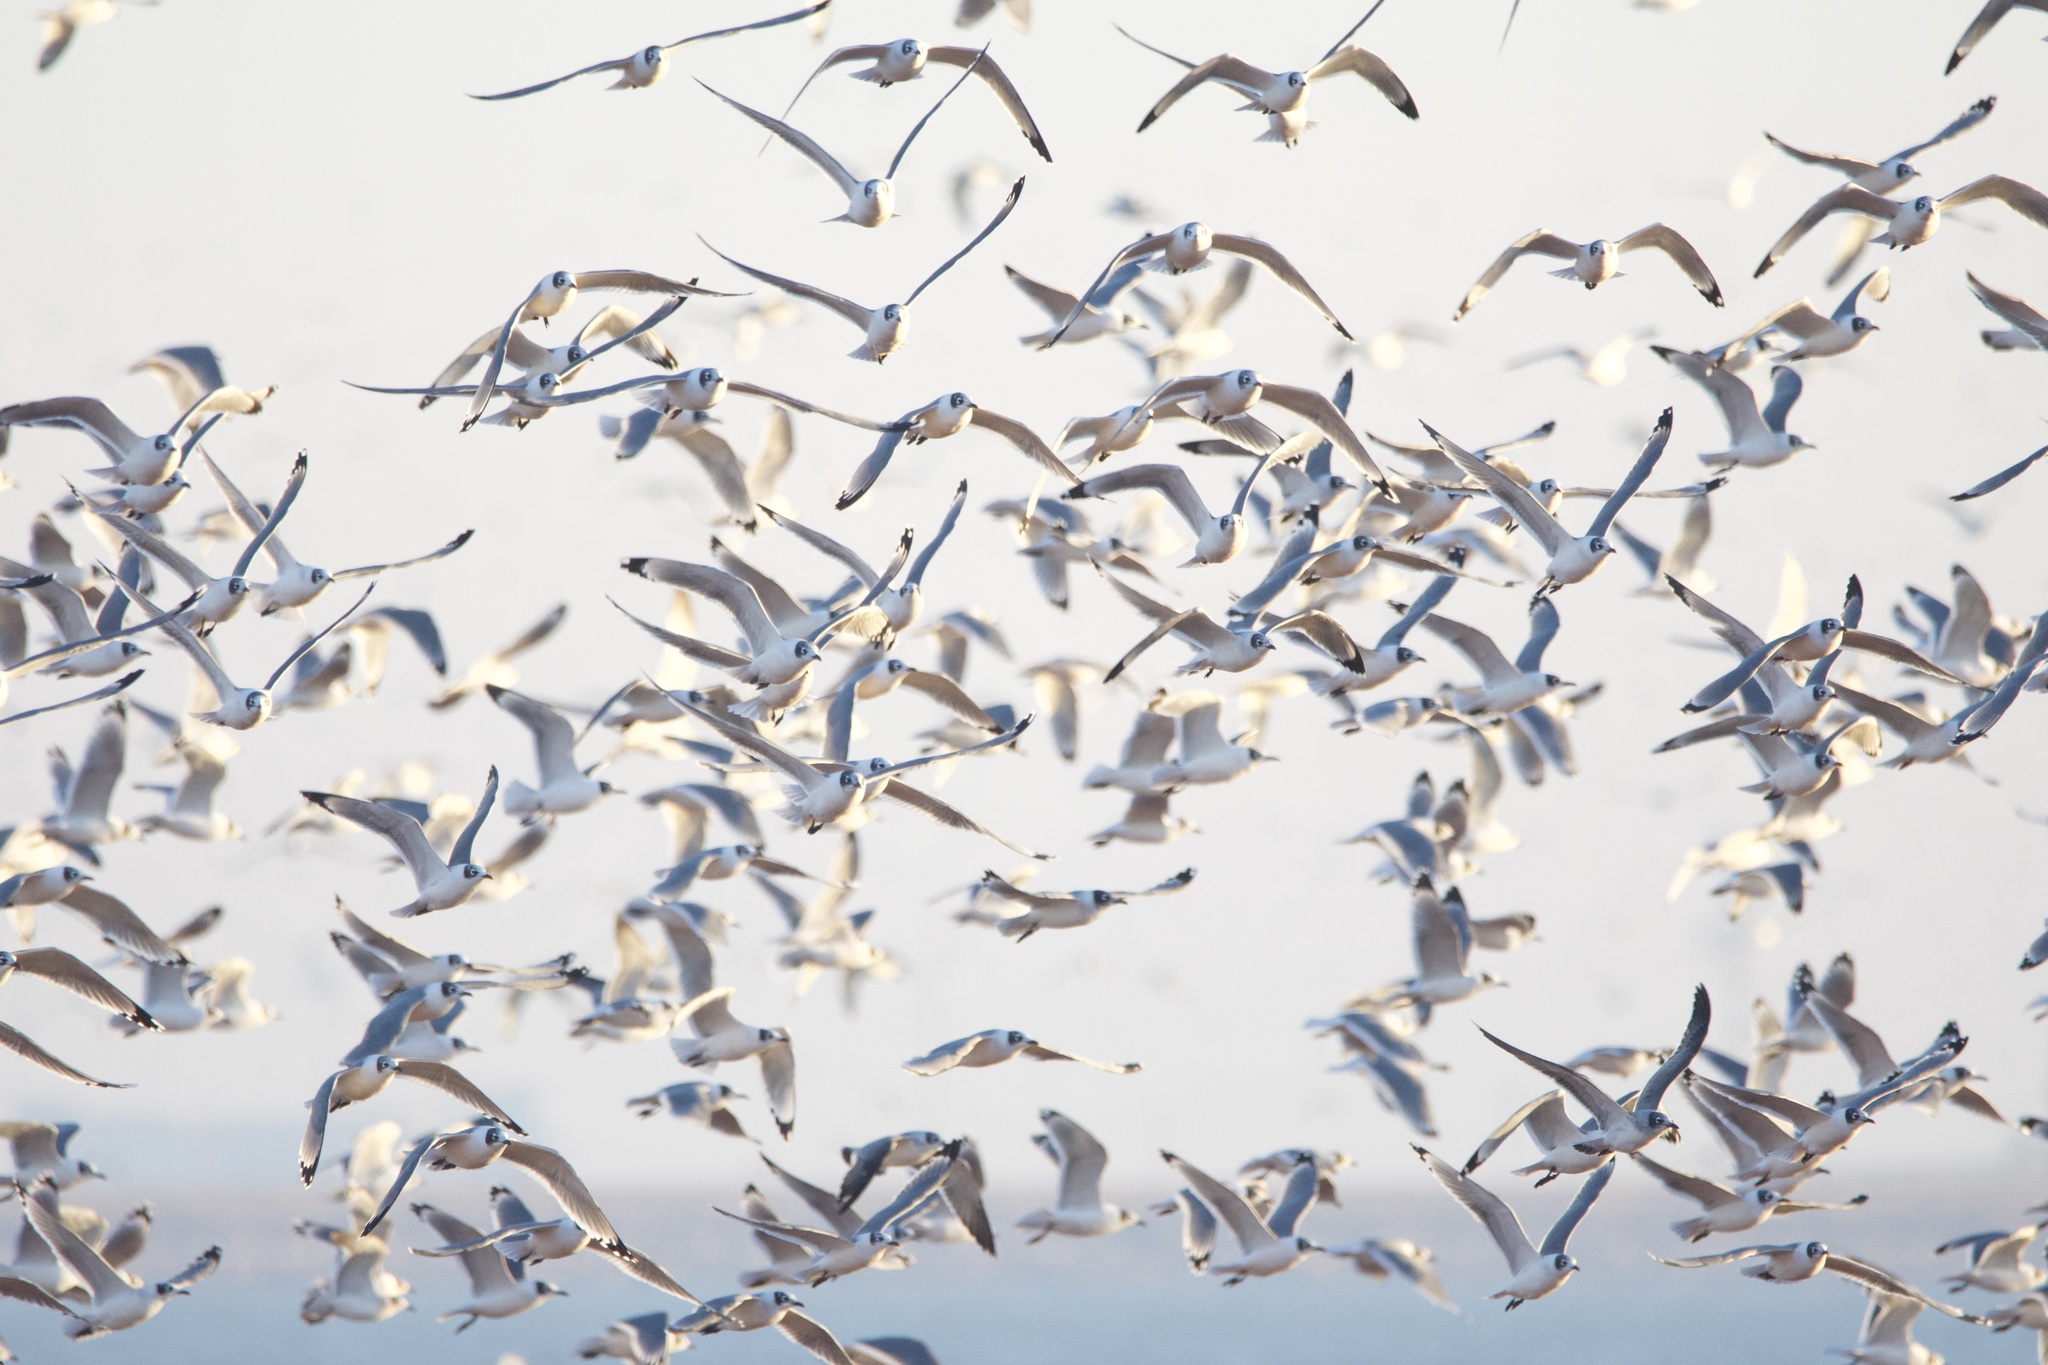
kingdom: Animalia
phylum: Chordata
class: Aves
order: Charadriiformes
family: Laridae
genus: Leucophaeus
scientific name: Leucophaeus pipixcan
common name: Franklin's gull
